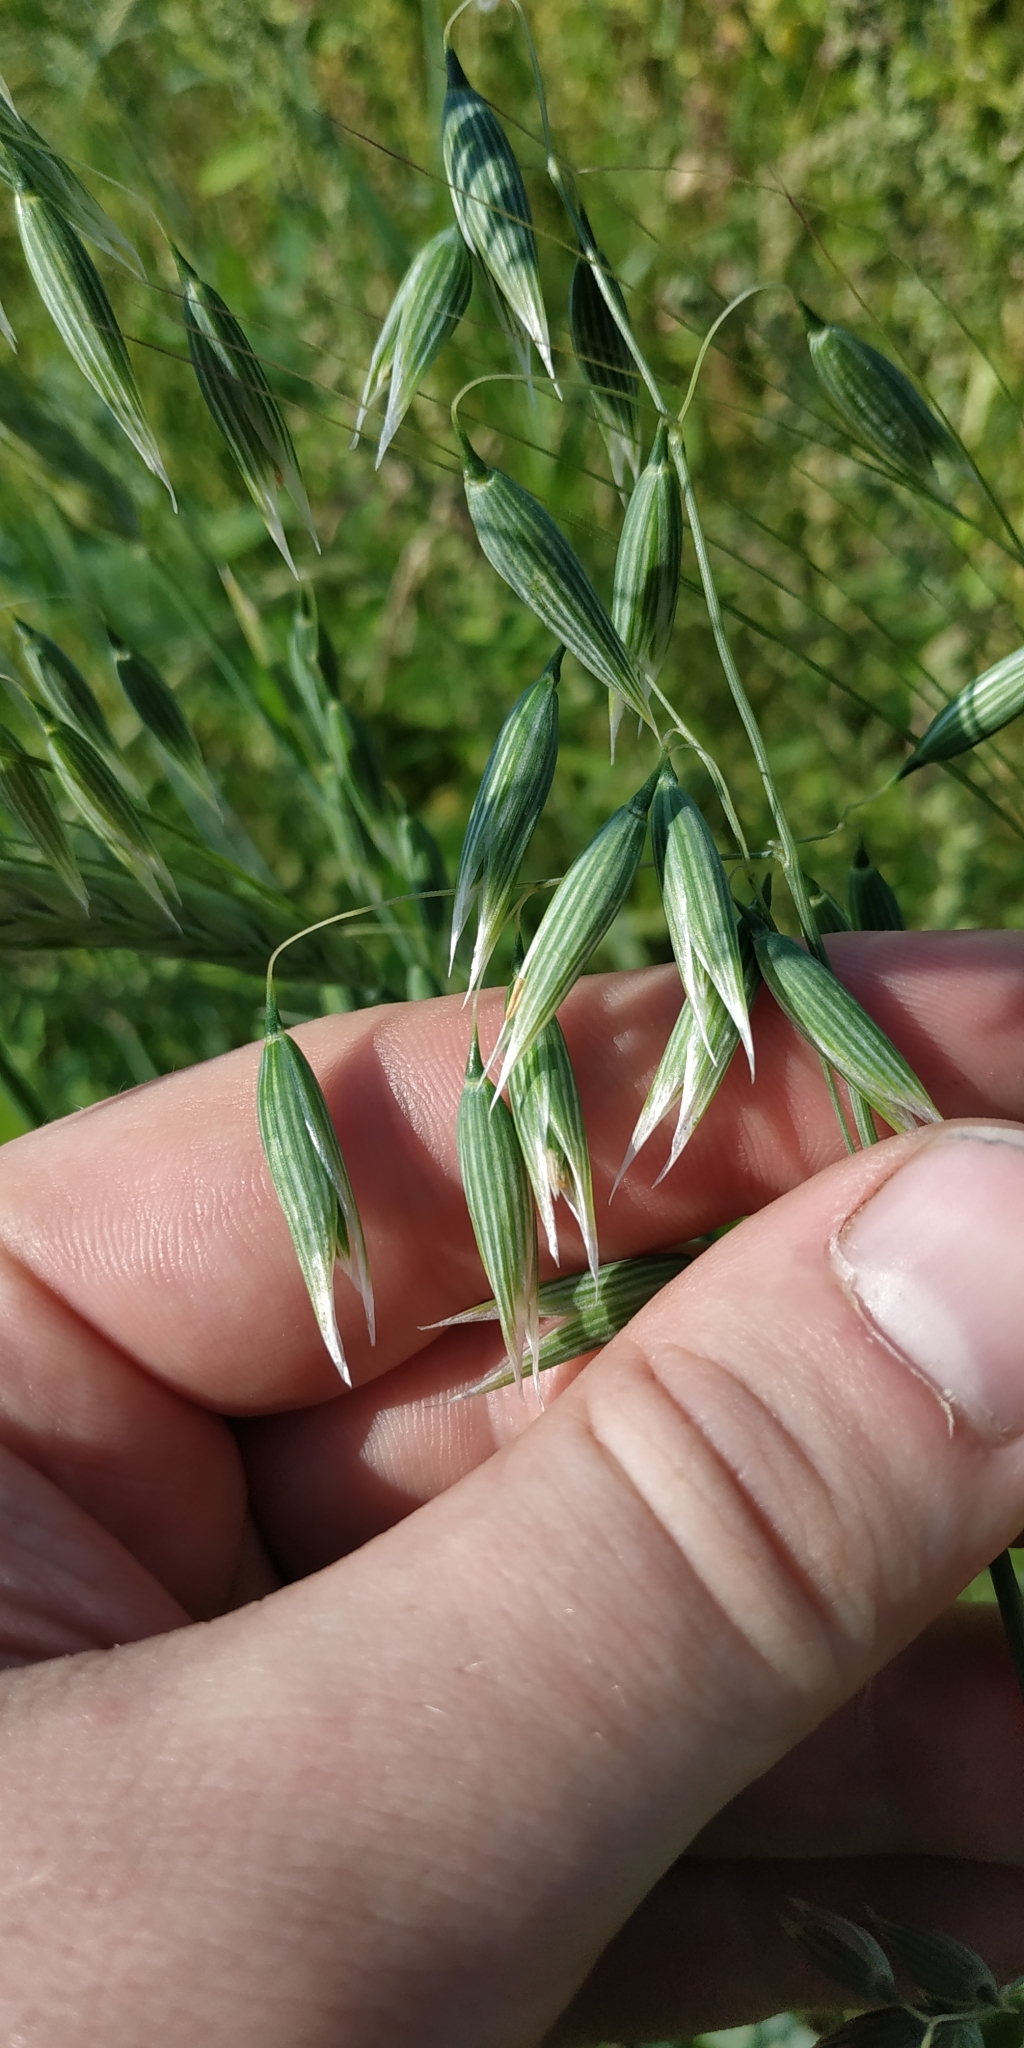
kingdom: Plantae
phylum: Tracheophyta
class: Liliopsida
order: Poales
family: Poaceae
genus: Avena
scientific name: Avena sativa
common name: Oat
